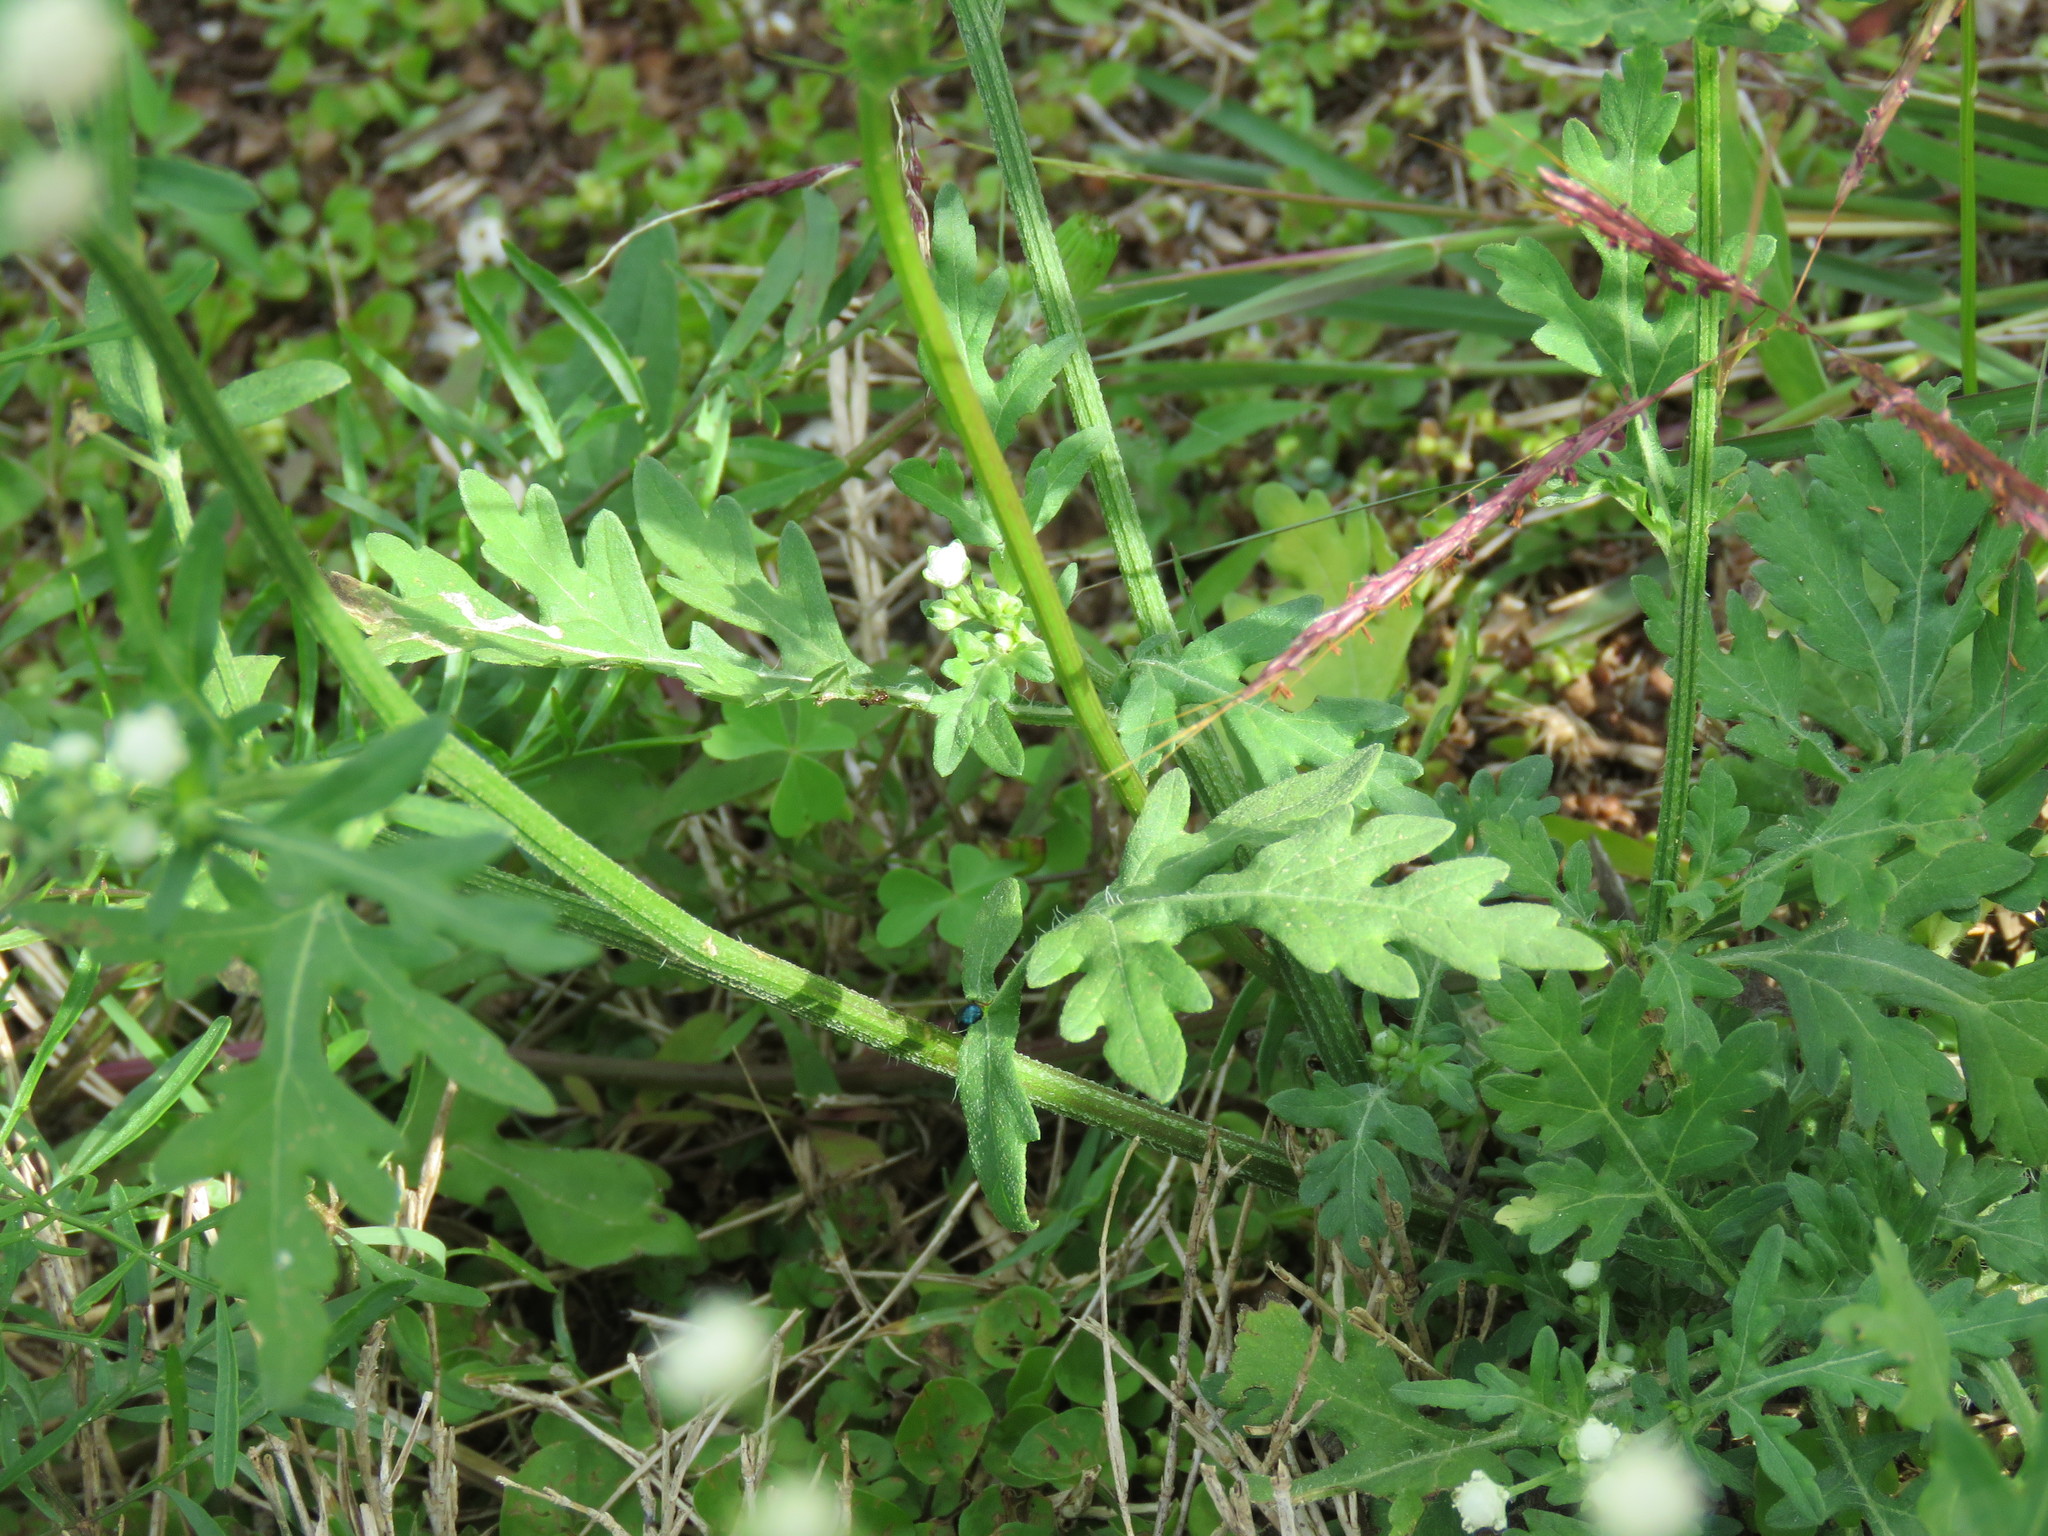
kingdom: Plantae
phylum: Tracheophyta
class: Magnoliopsida
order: Asterales
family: Asteraceae
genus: Parthenium
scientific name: Parthenium hysterophorus
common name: Santa maria feverfew
